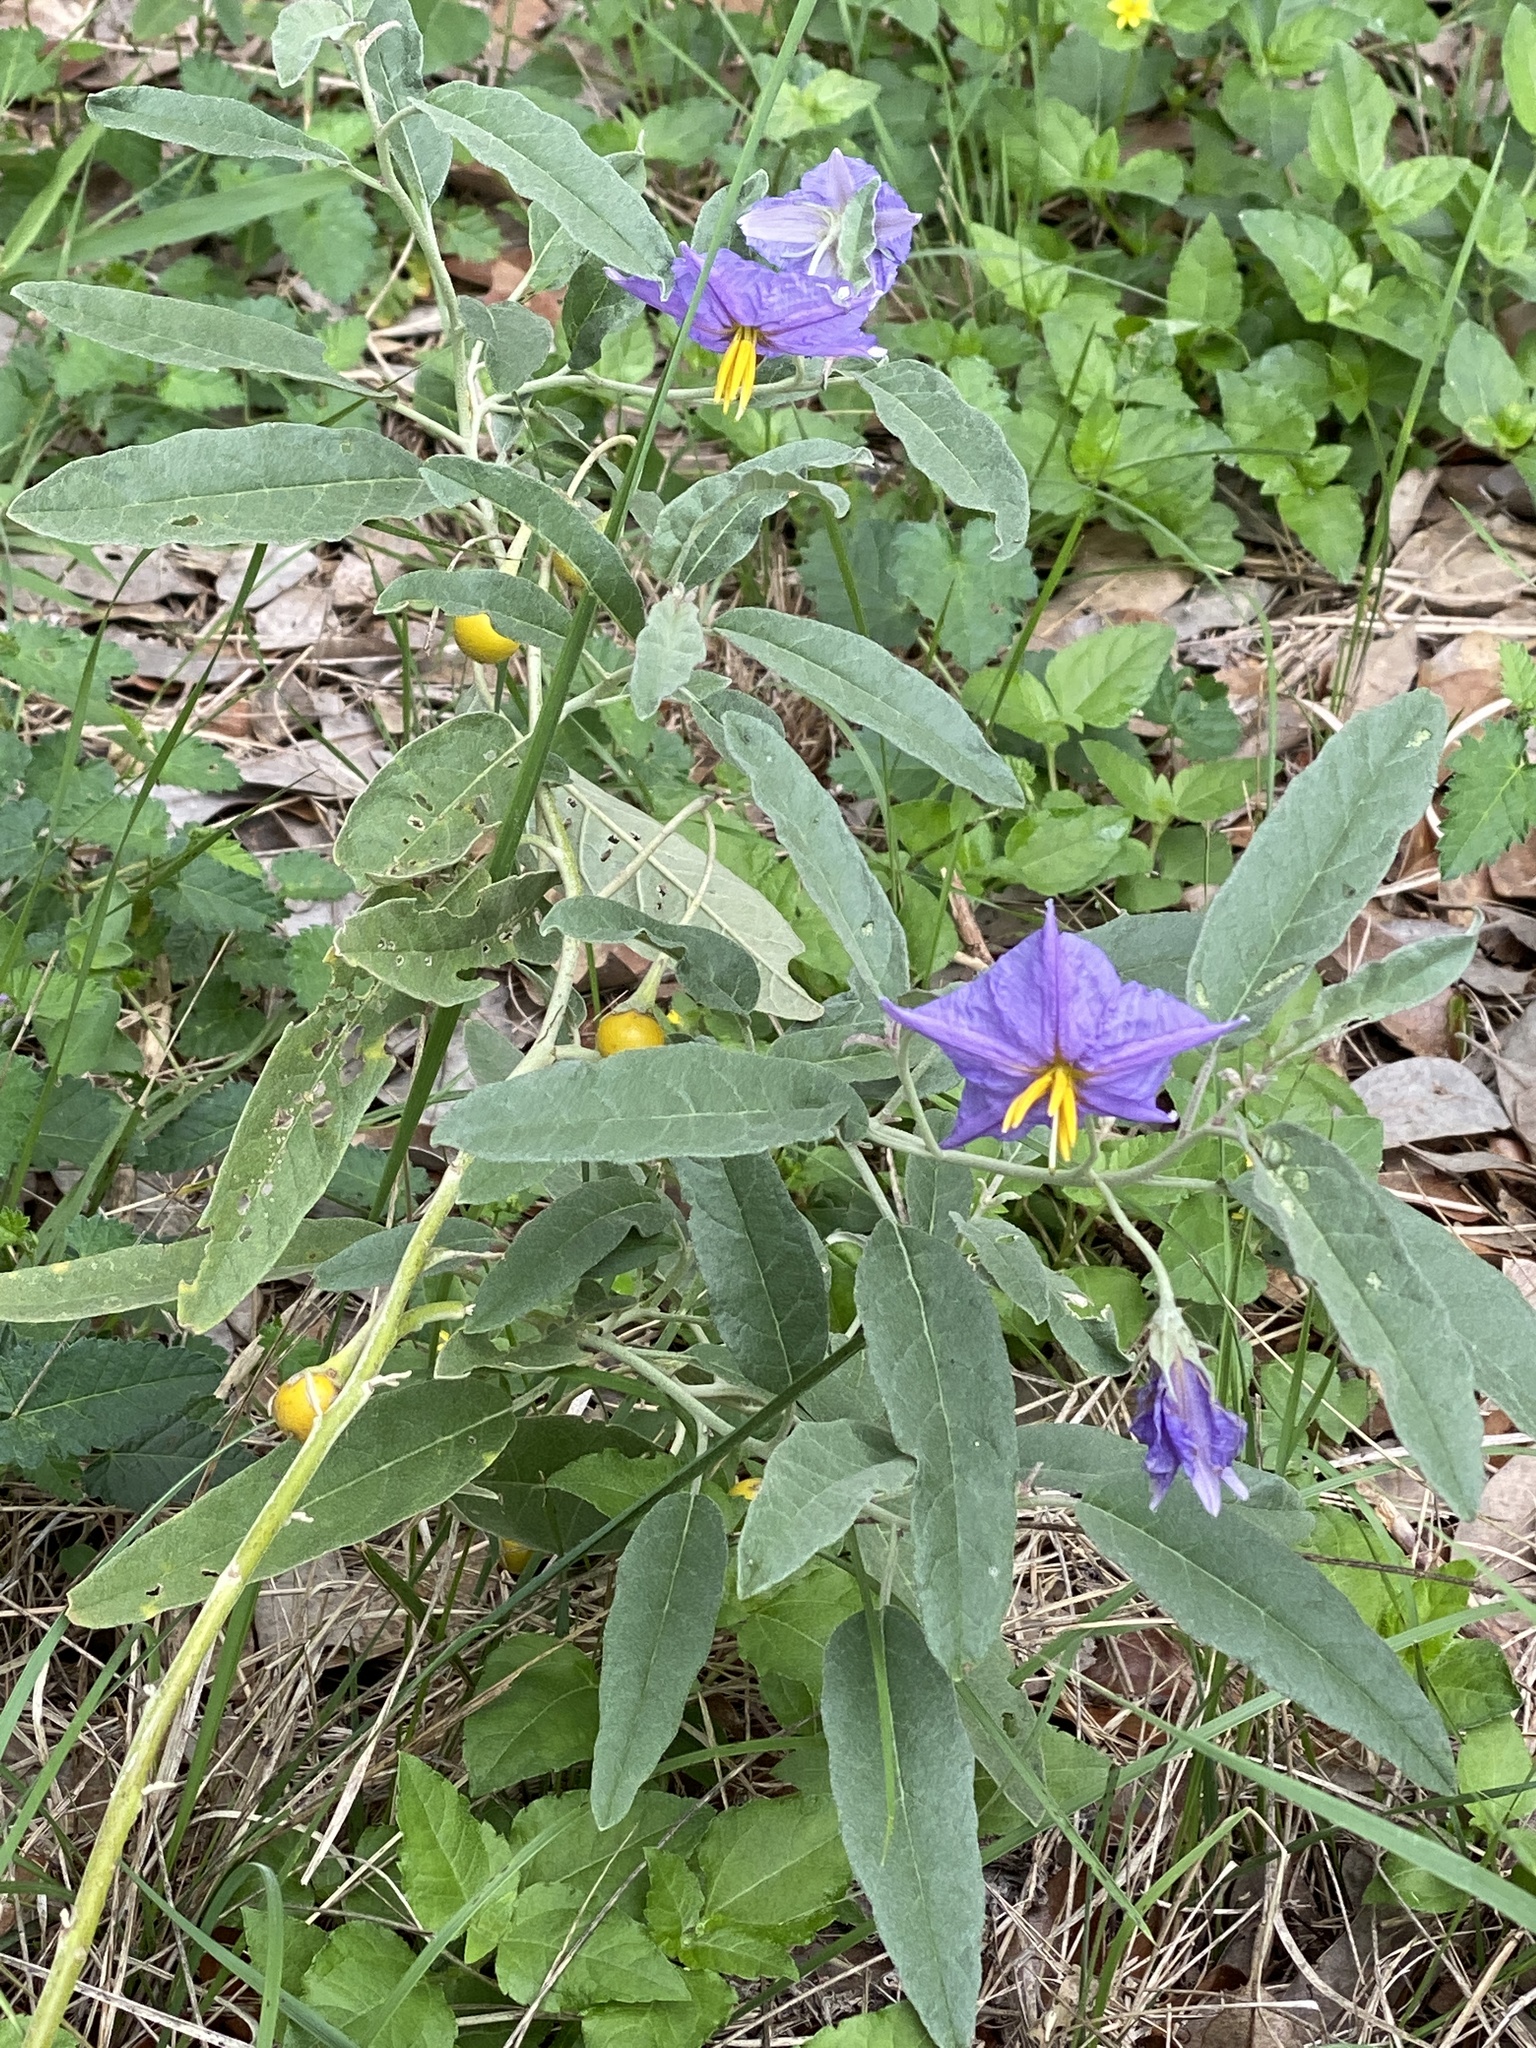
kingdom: Plantae
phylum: Tracheophyta
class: Magnoliopsida
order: Solanales
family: Solanaceae
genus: Solanum
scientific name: Solanum elaeagnifolium
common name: Silverleaf nightshade
